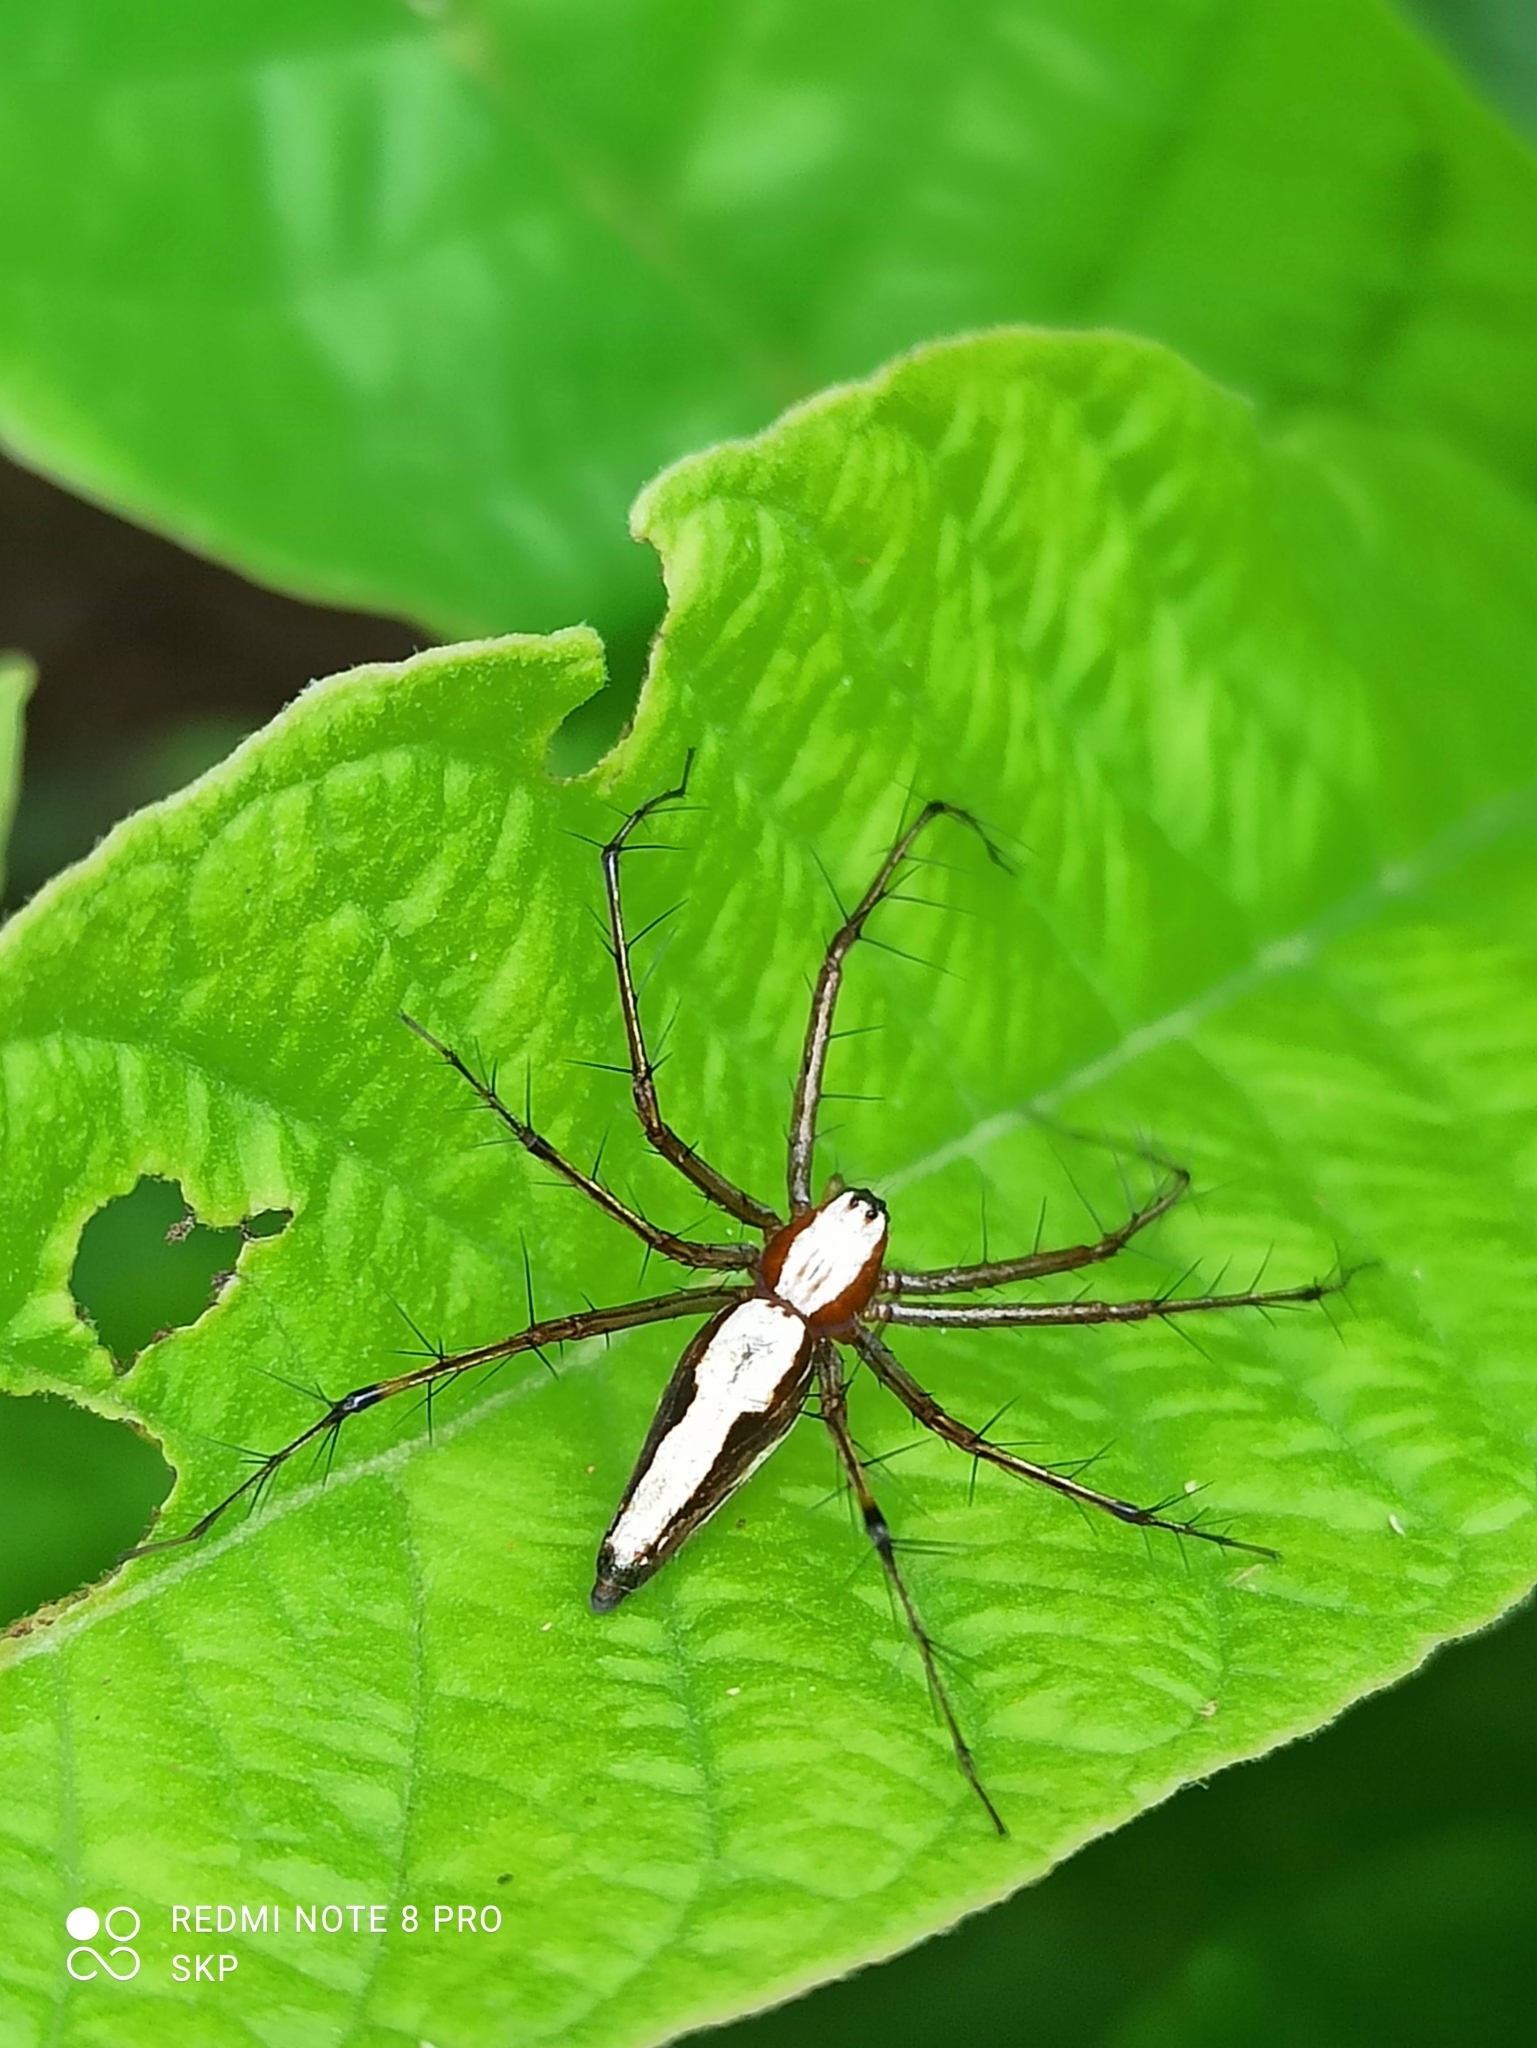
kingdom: Animalia
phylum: Arthropoda
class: Arachnida
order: Araneae
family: Oxyopidae
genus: Oxyopes
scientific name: Oxyopes shweta
